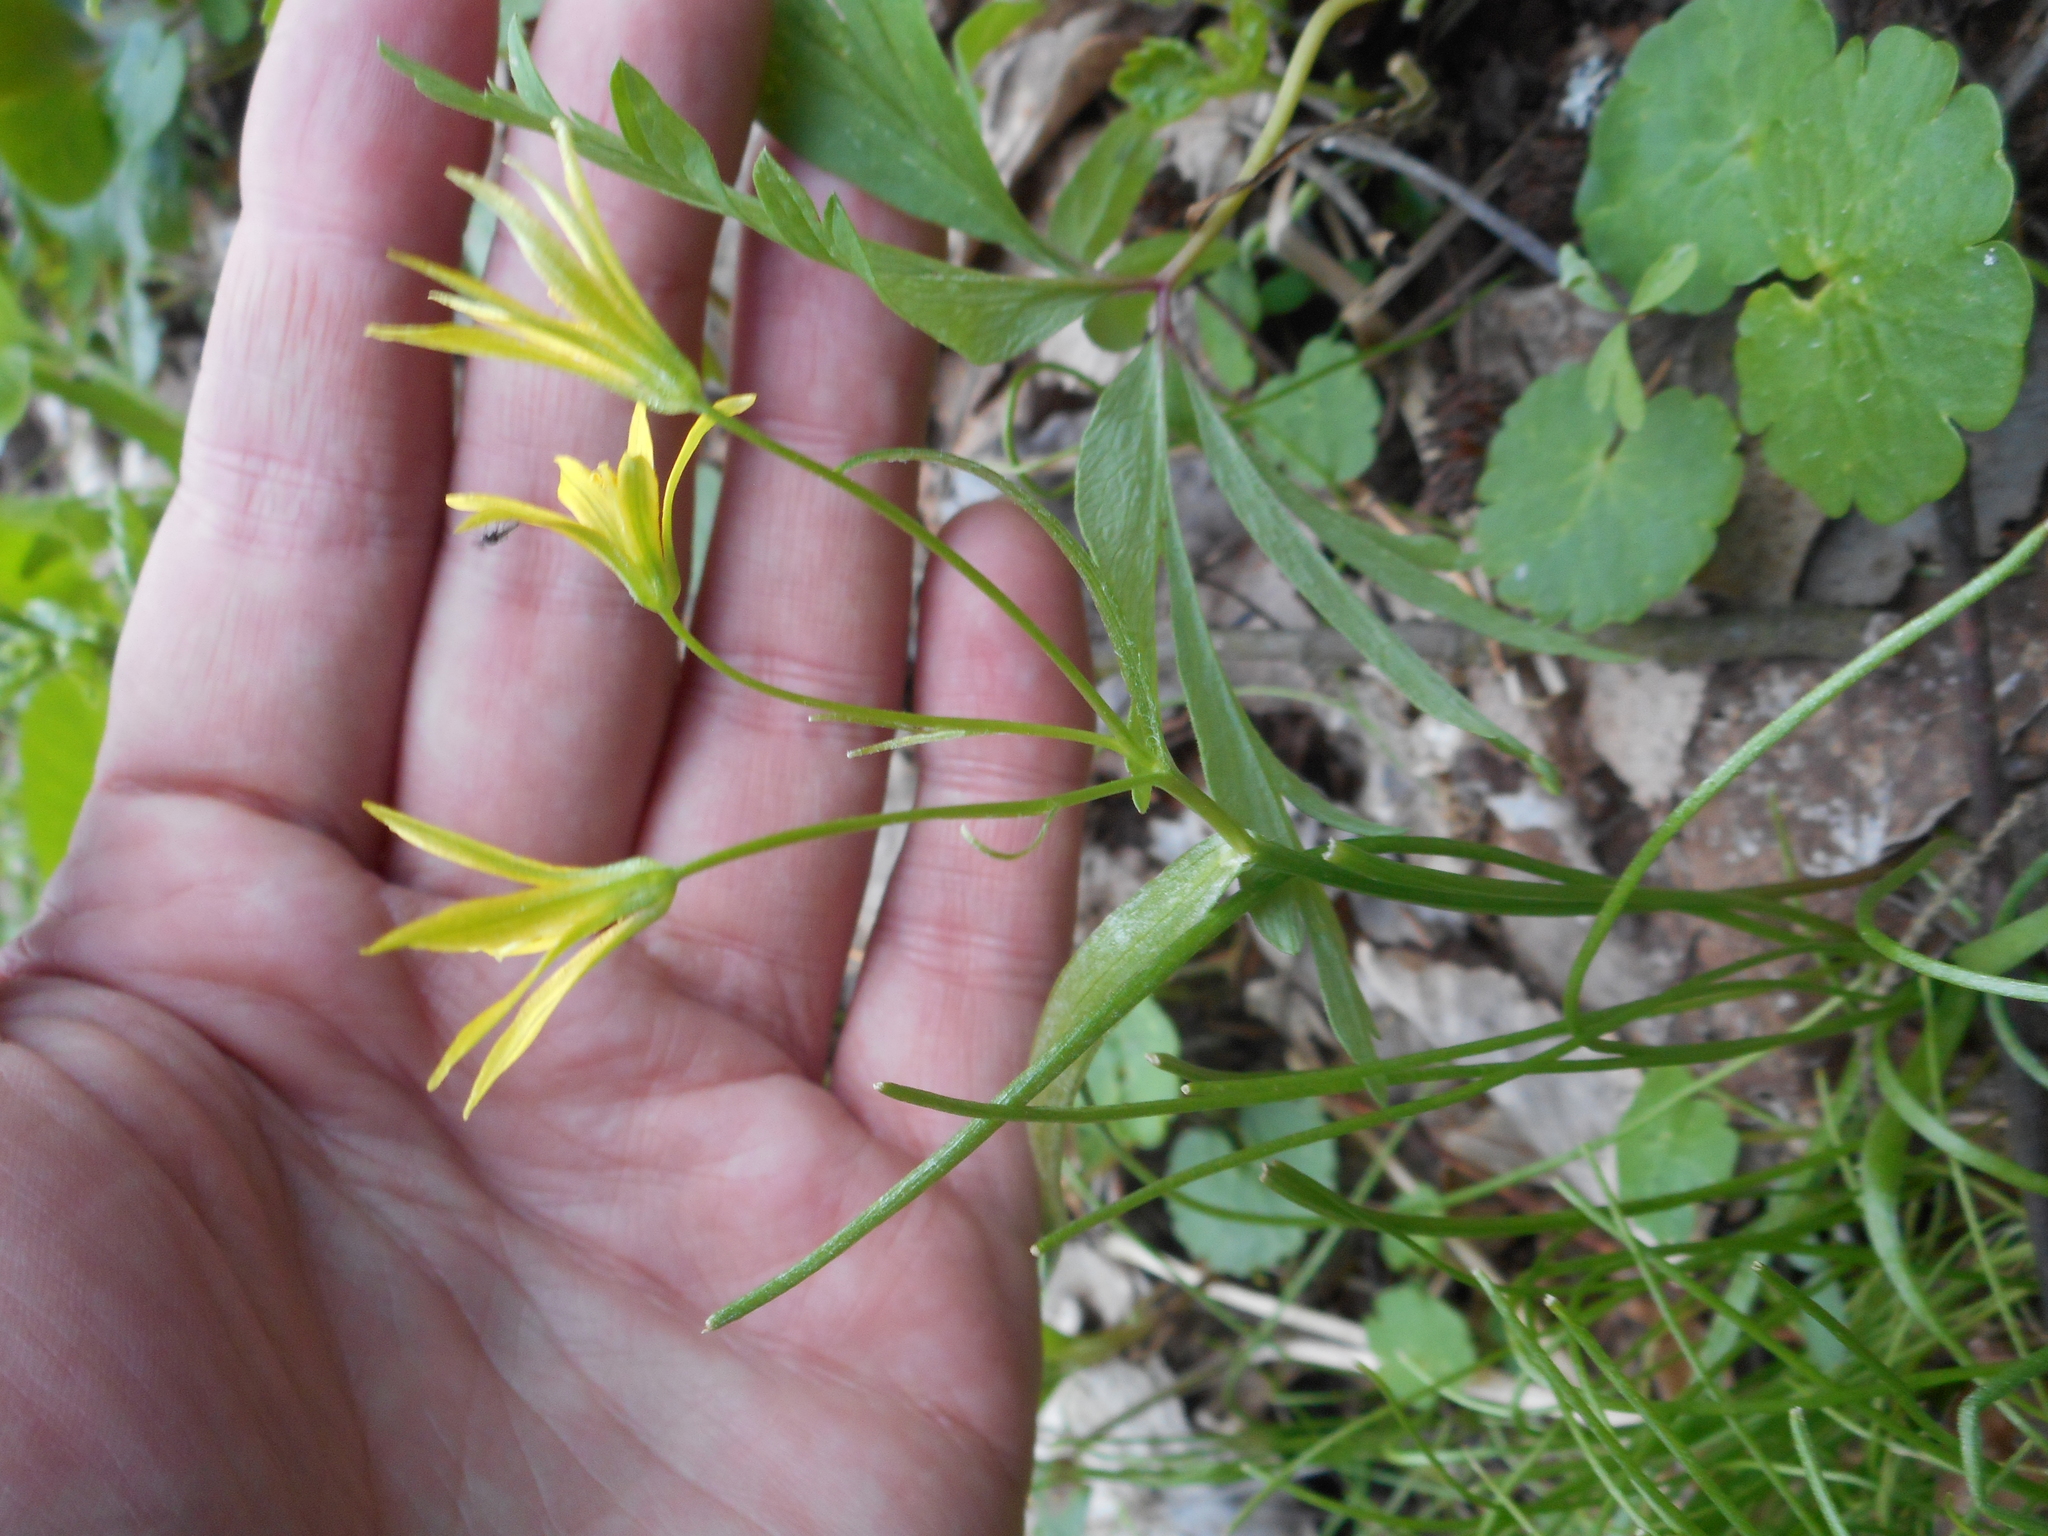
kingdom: Plantae
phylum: Tracheophyta
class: Liliopsida
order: Liliales
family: Liliaceae
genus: Gagea
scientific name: Gagea minima
